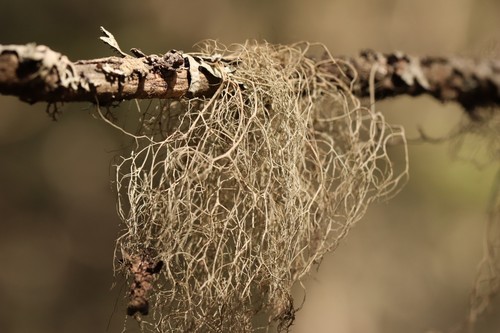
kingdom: Fungi
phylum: Ascomycota
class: Lecanoromycetes
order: Lecanorales
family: Parmeliaceae
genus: Bryoria
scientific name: Bryoria
